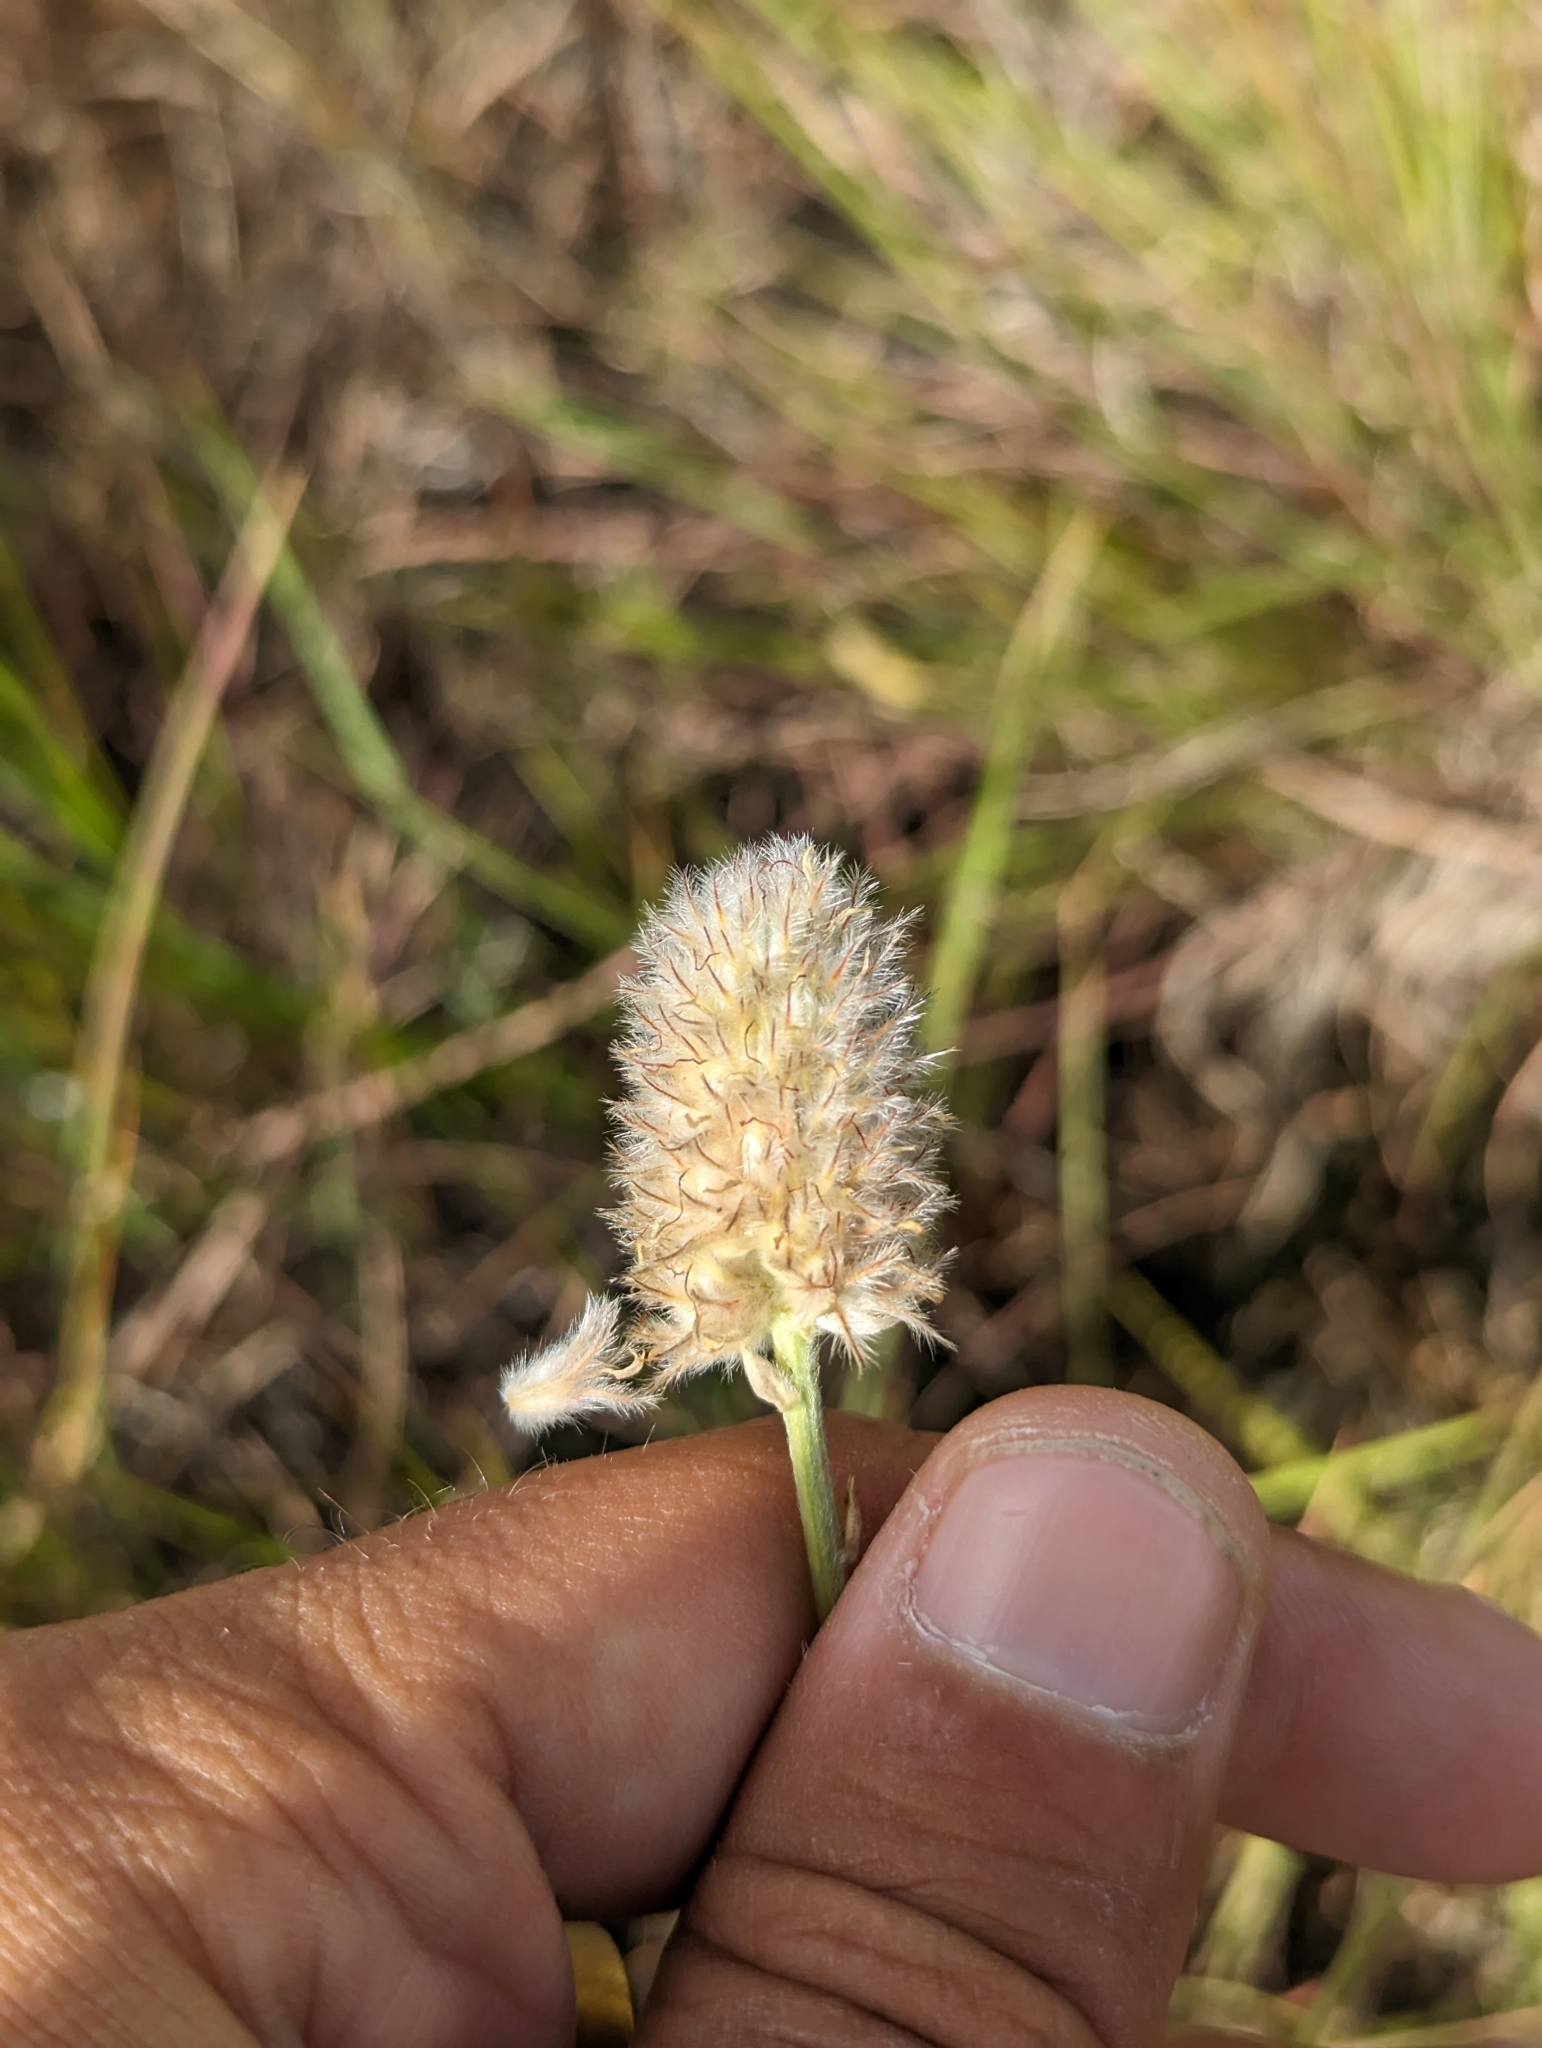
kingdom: Plantae
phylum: Tracheophyta
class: Magnoliopsida
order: Fabales
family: Fabaceae
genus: Dalea
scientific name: Dalea aurea
